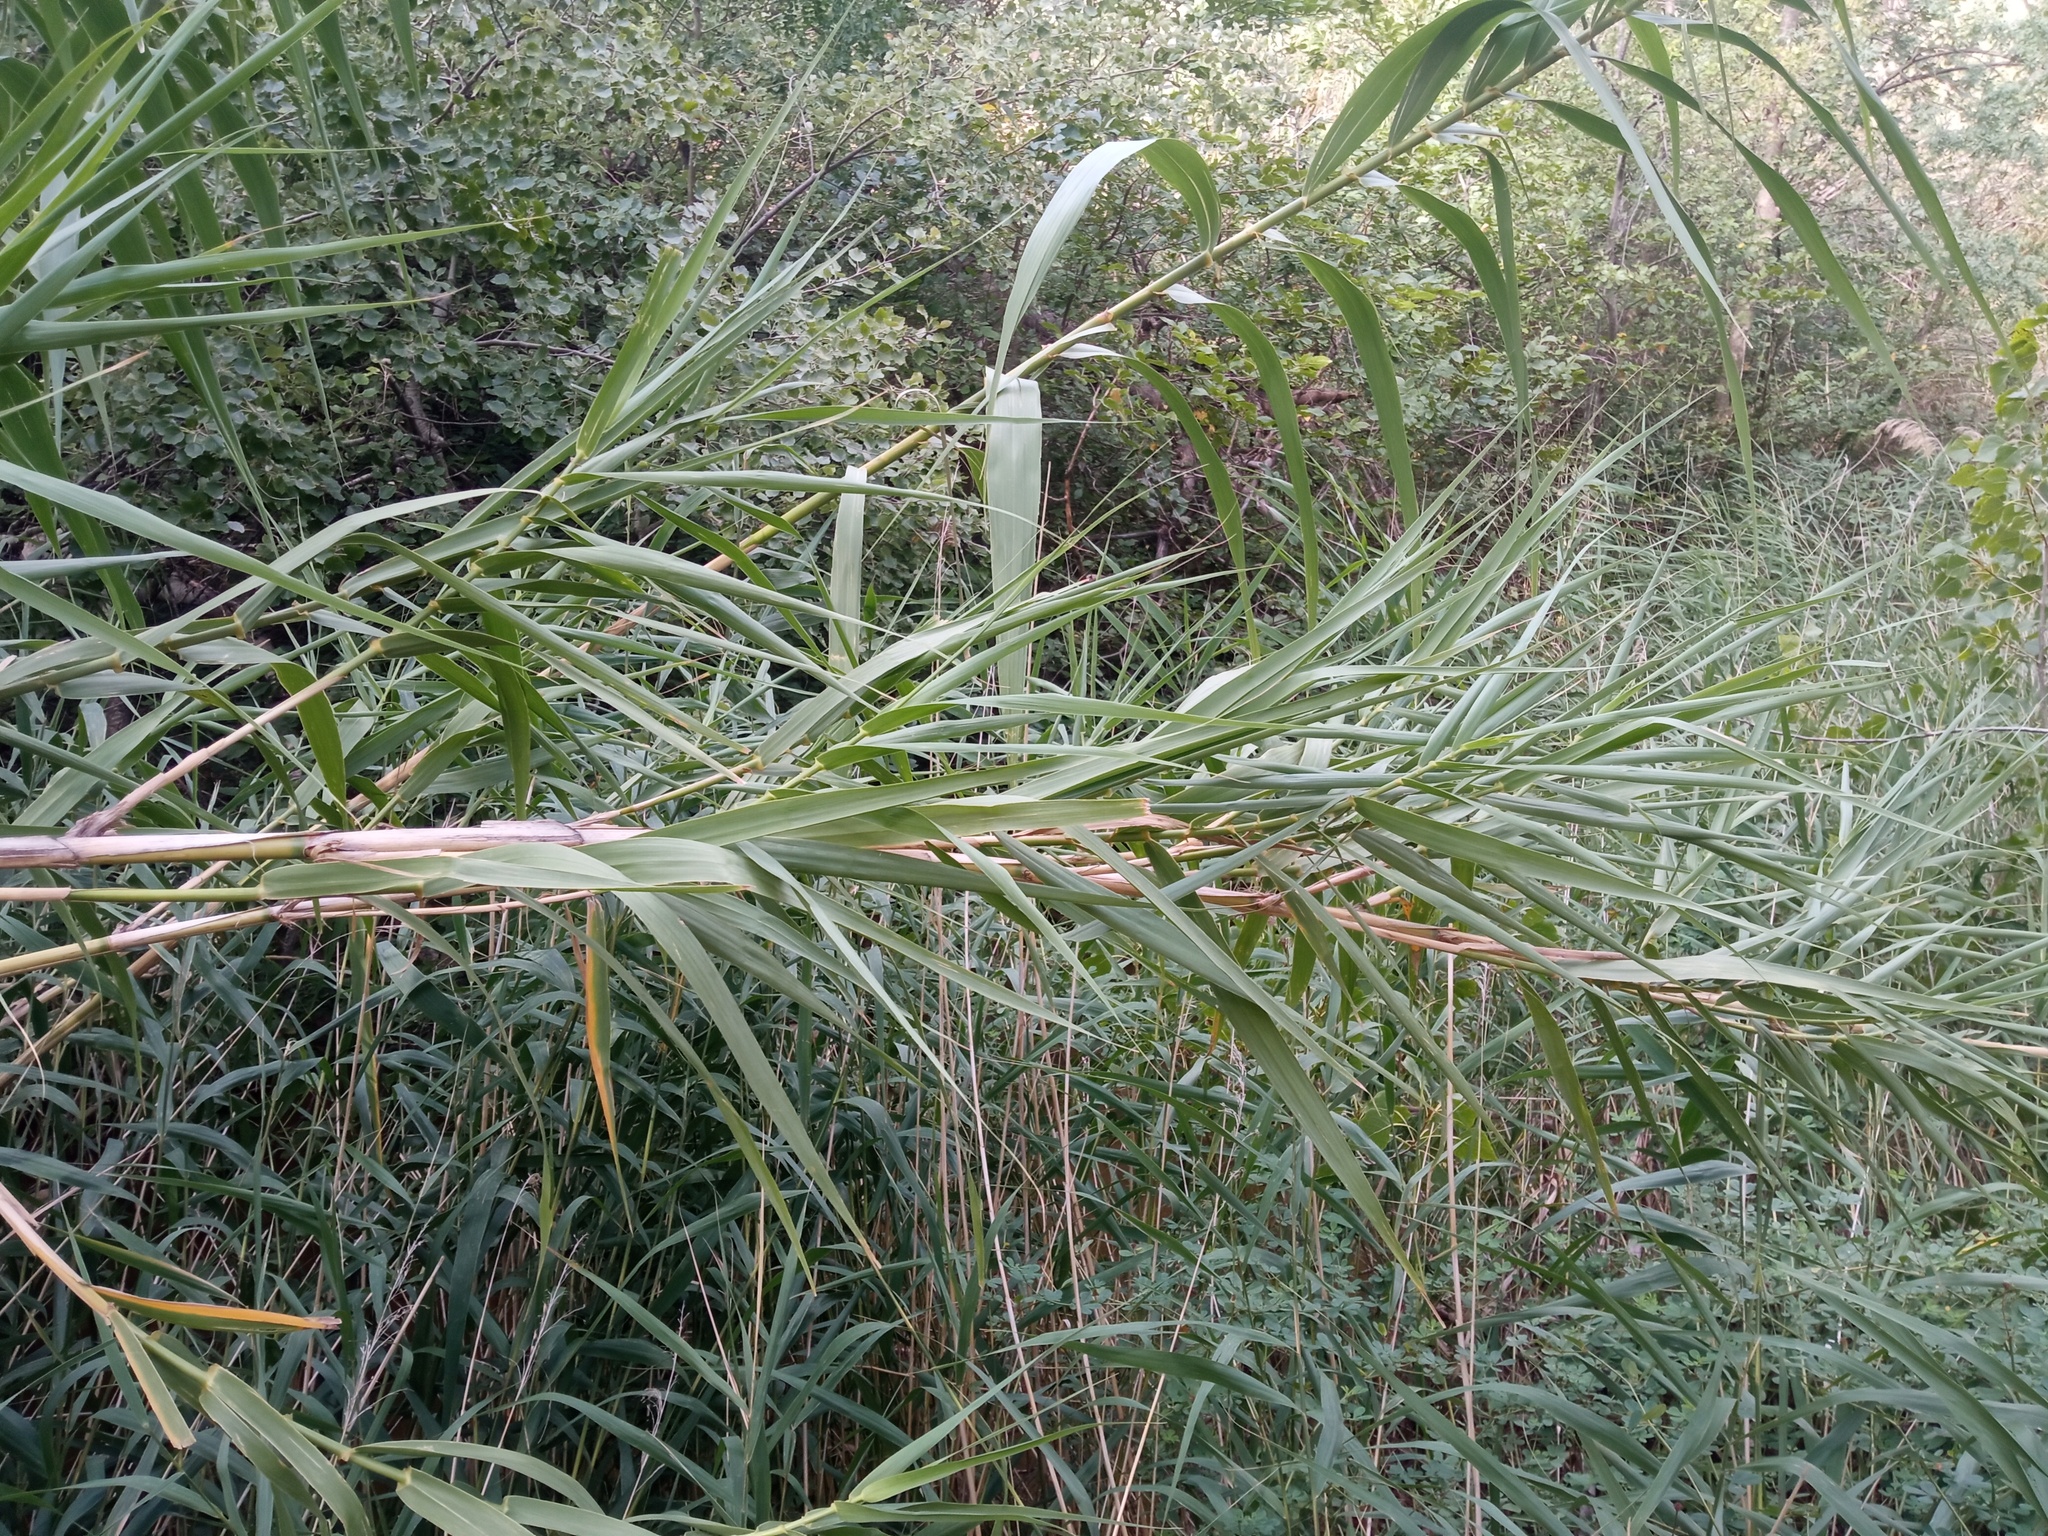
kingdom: Plantae
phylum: Tracheophyta
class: Liliopsida
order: Poales
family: Poaceae
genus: Arundo
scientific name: Arundo donax
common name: Giant reed
